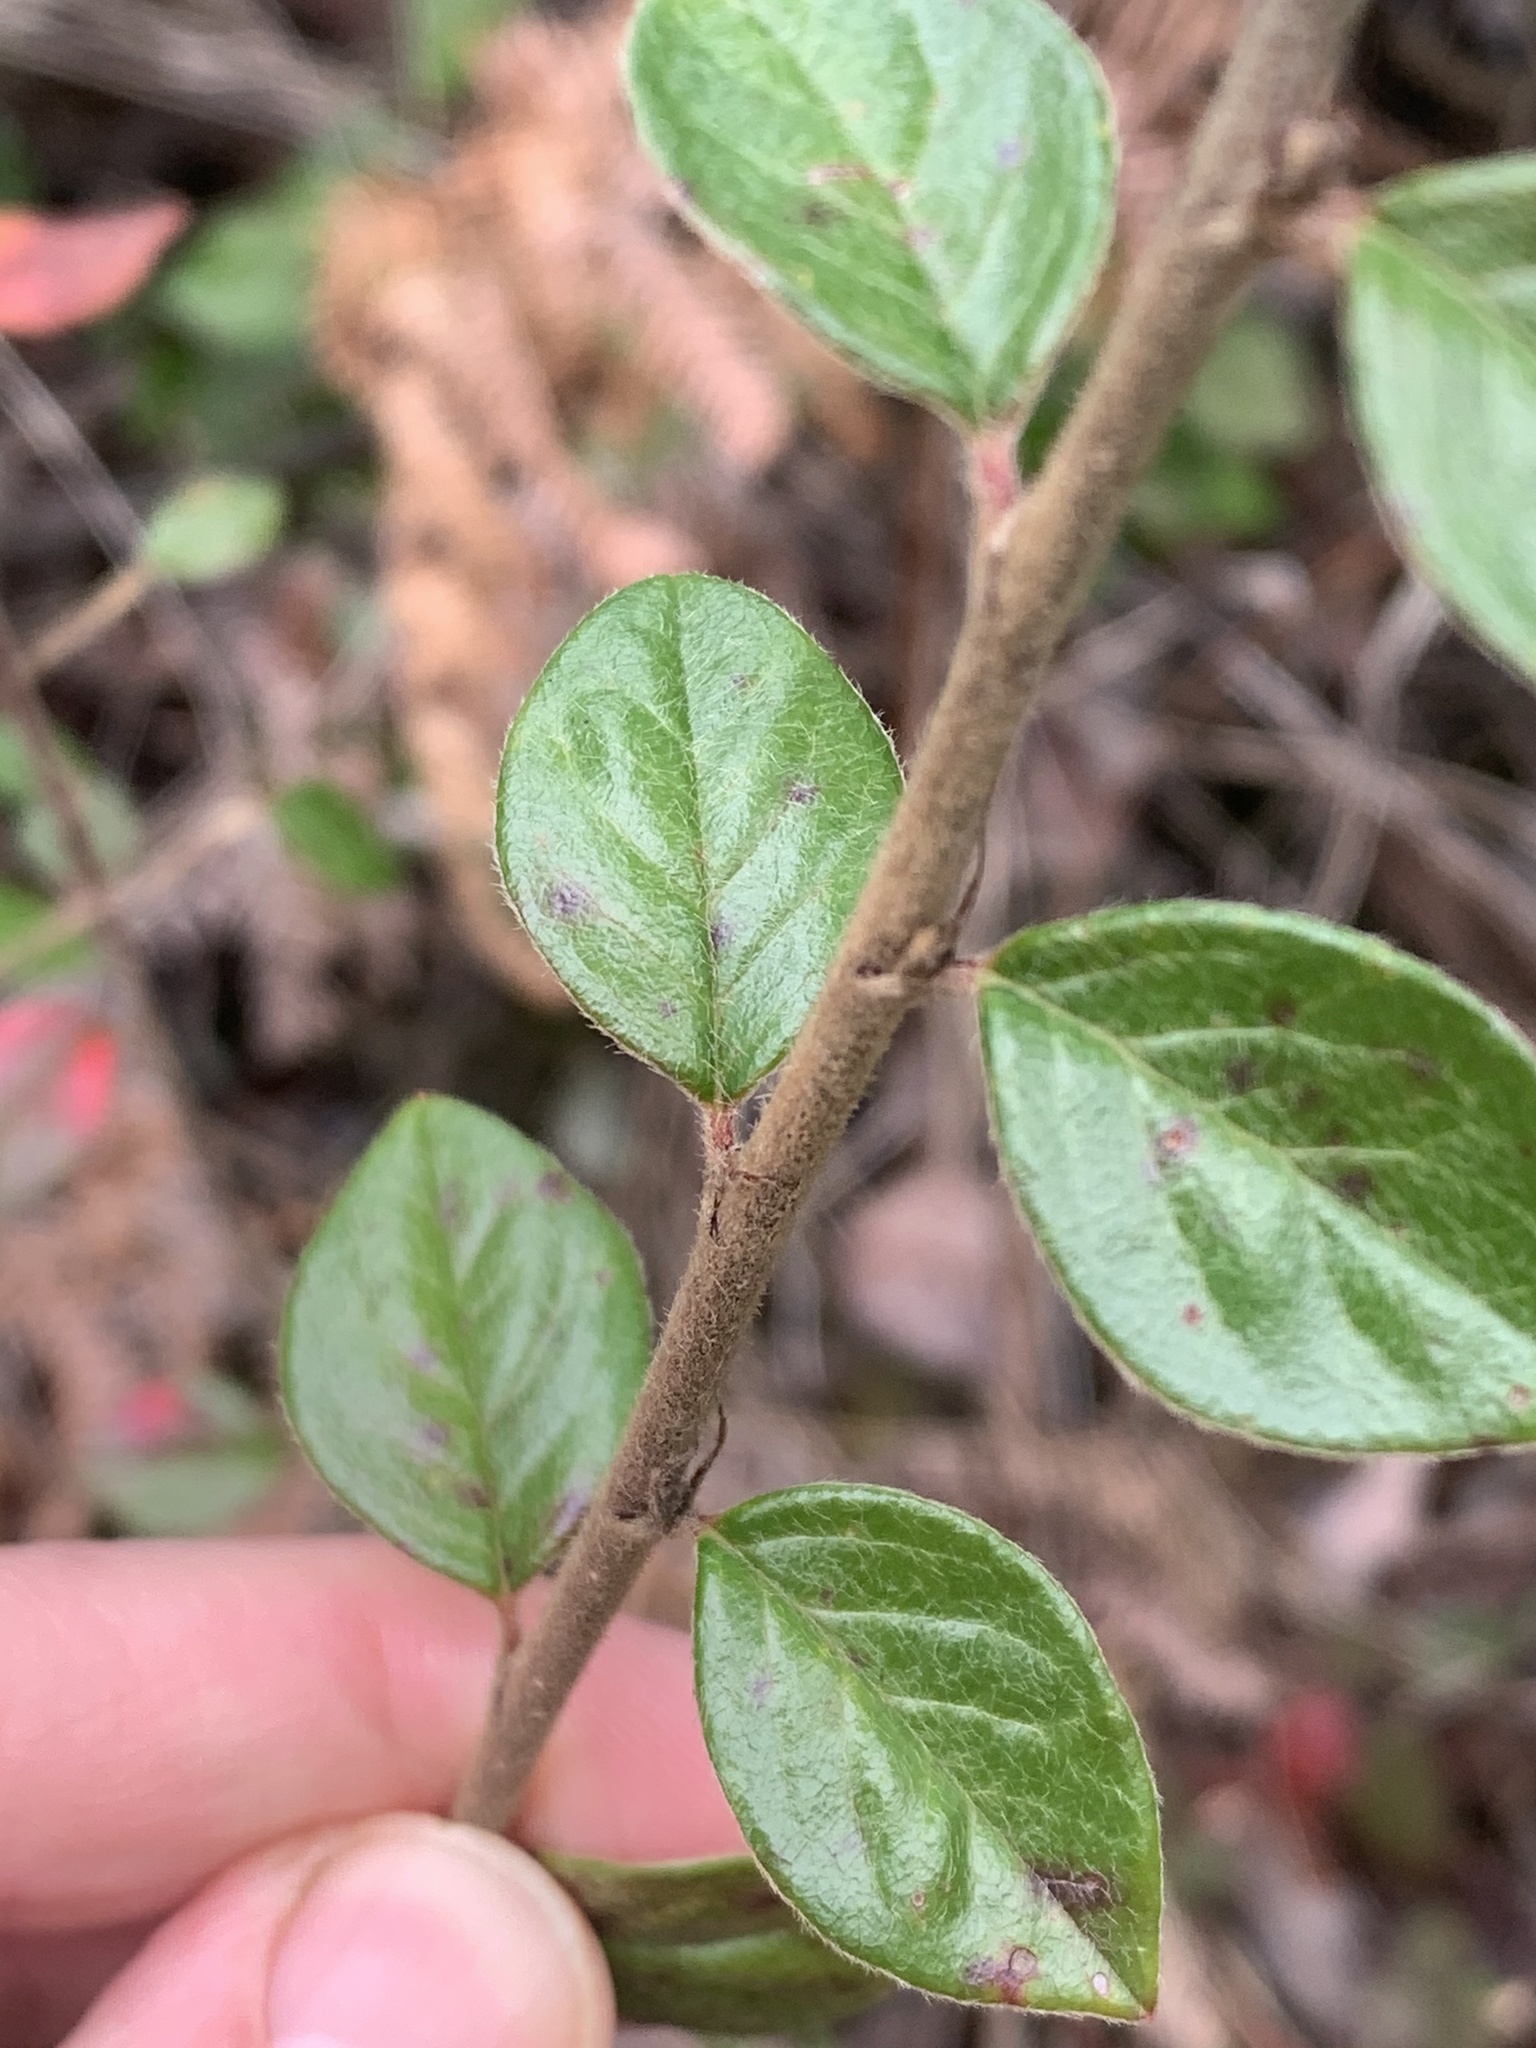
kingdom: Plantae
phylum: Tracheophyta
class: Magnoliopsida
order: Rosales
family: Rosaceae
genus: Cotoneaster
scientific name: Cotoneaster simonsii
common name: Himalayan cotoneaster
